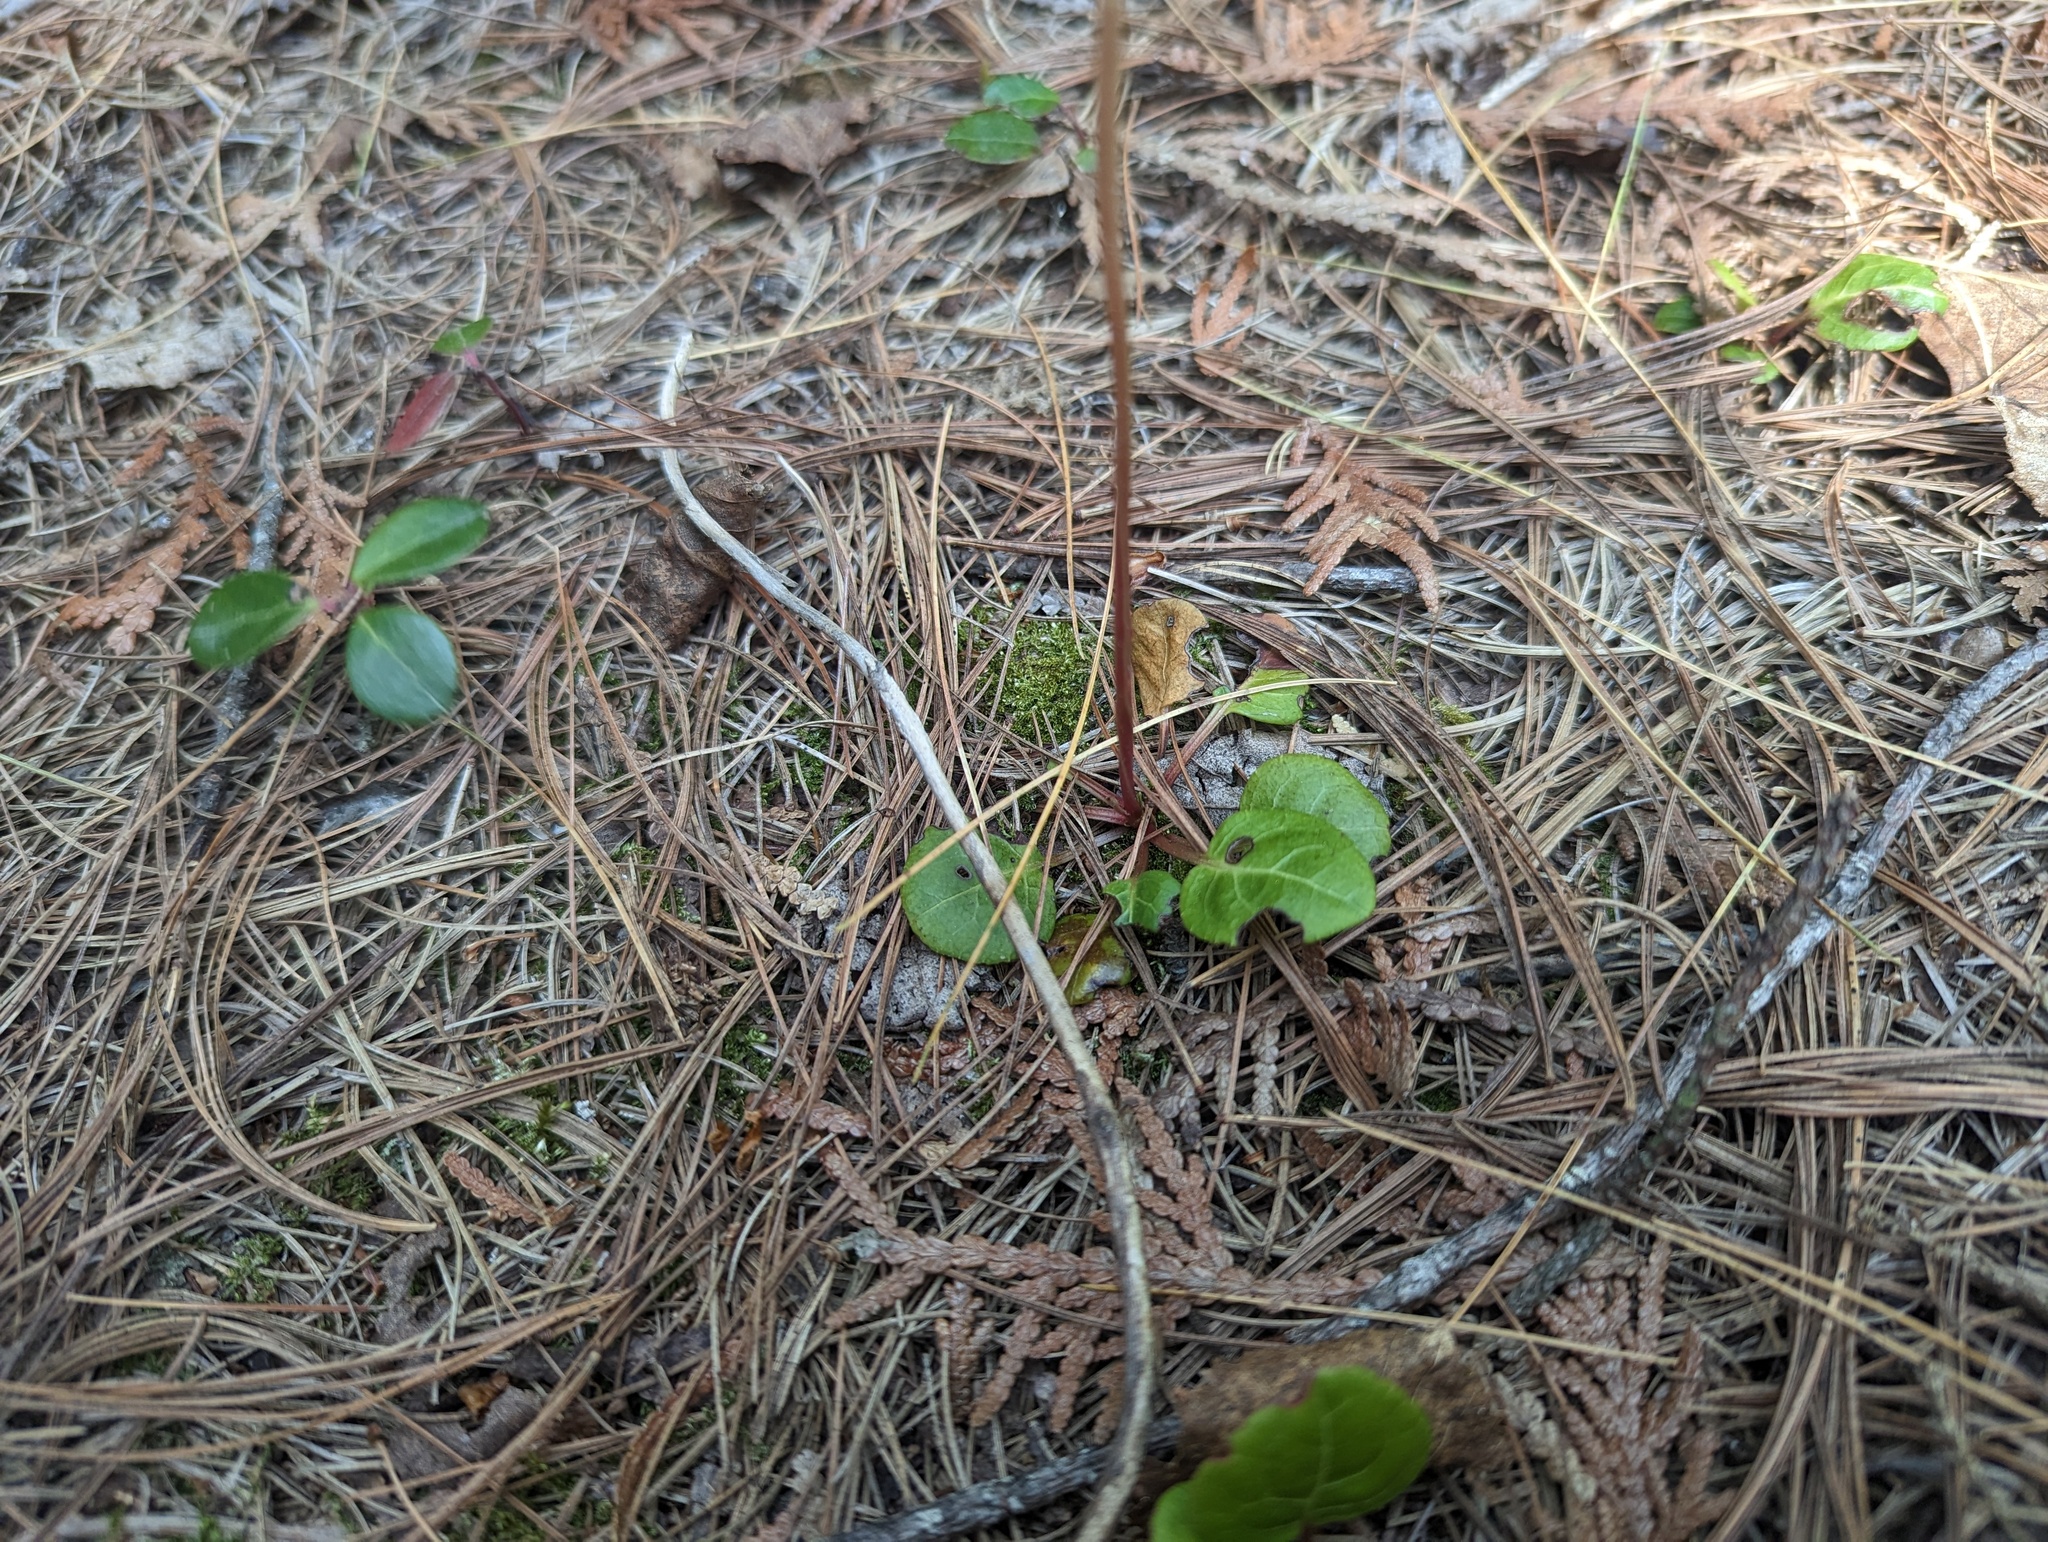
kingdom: Plantae
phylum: Tracheophyta
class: Magnoliopsida
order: Ericales
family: Ericaceae
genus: Pyrola
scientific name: Pyrola chlorantha
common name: Green wintergreen
